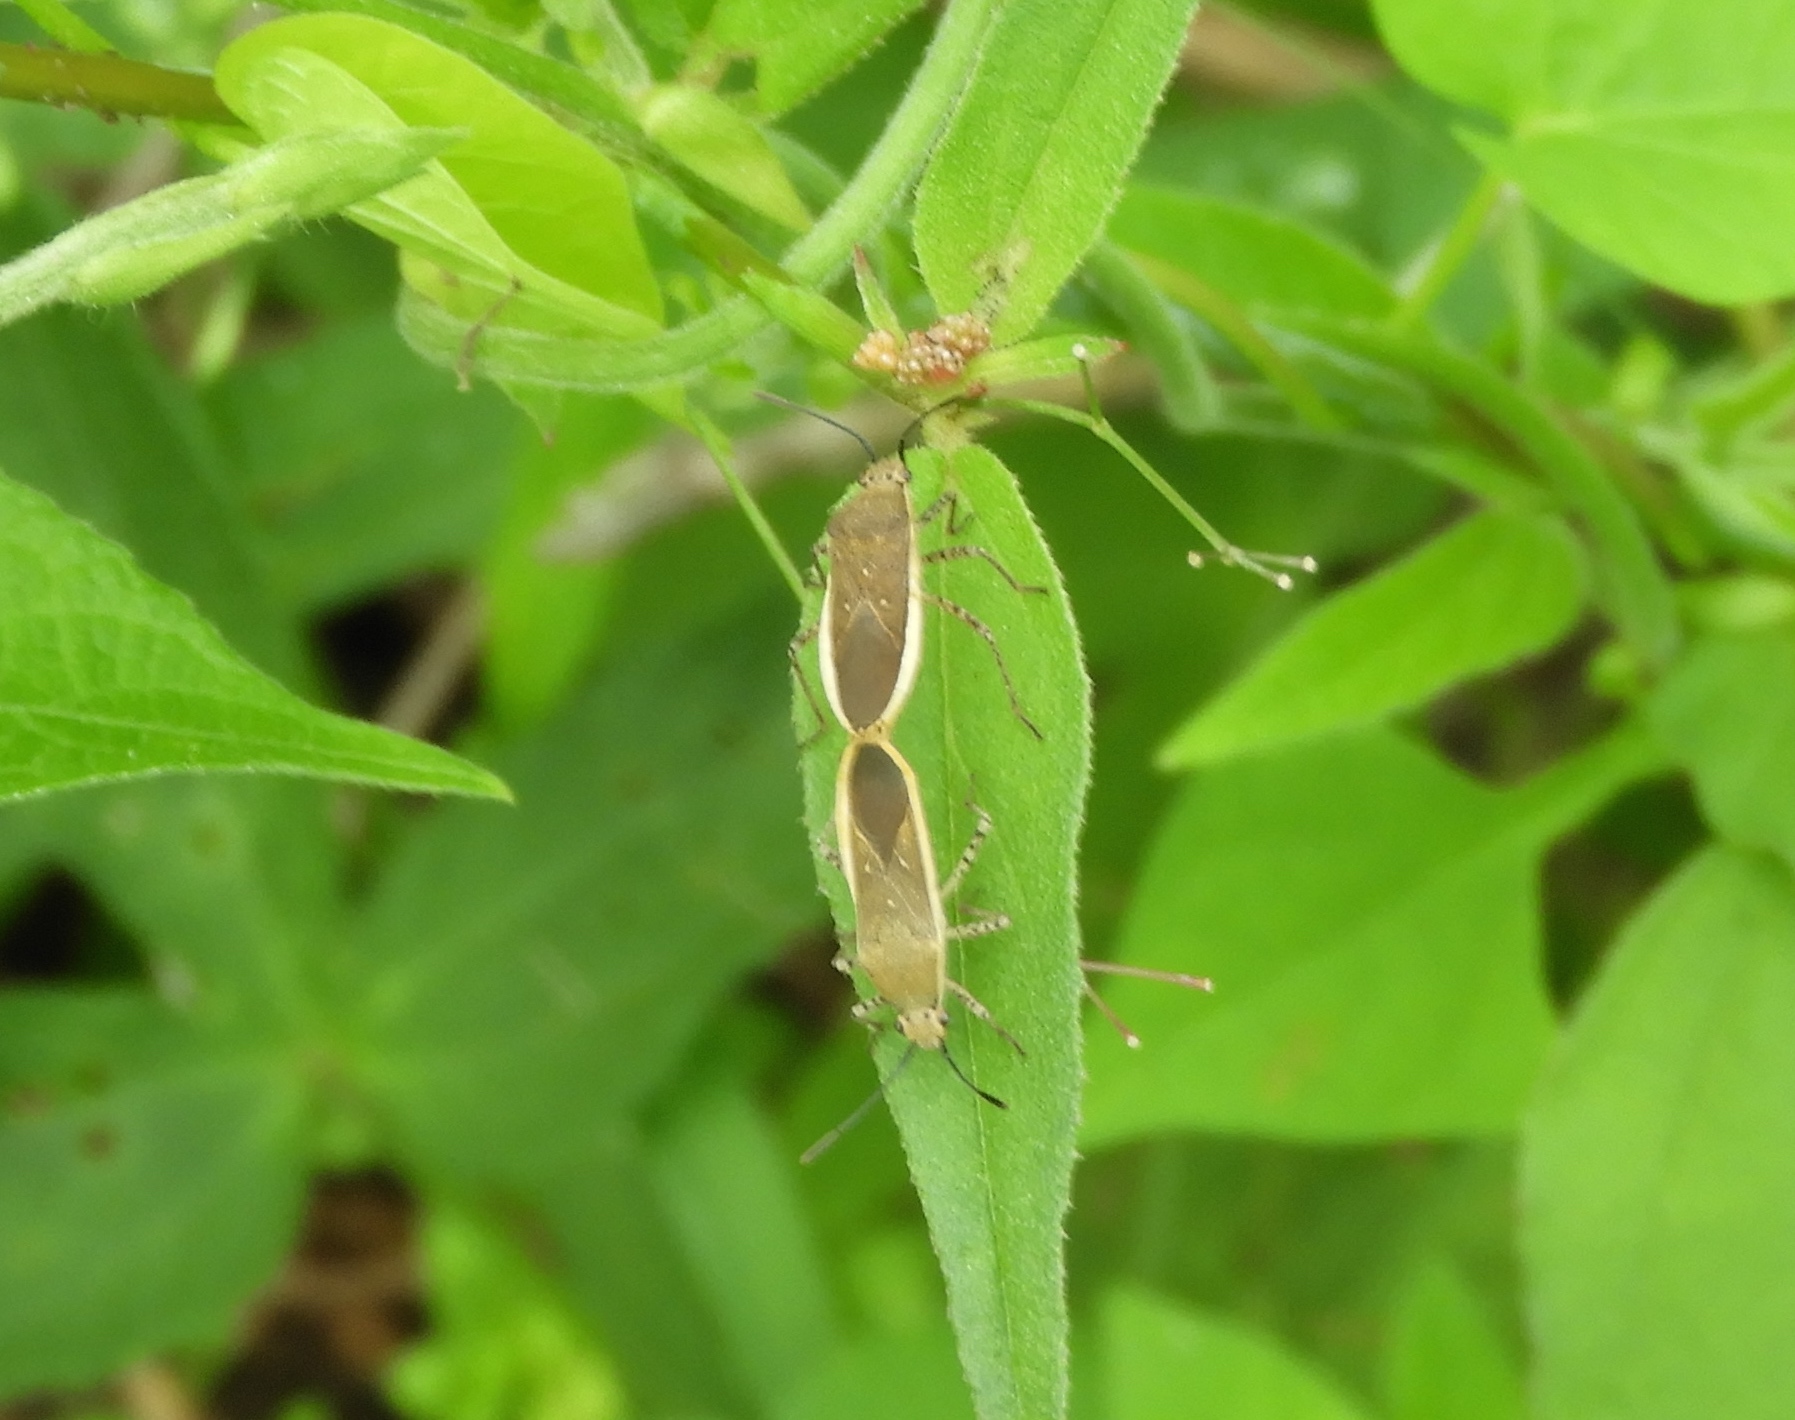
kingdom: Animalia
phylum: Arthropoda
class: Insecta
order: Hemiptera
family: Coreidae
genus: Catorhintha
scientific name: Catorhintha selector
